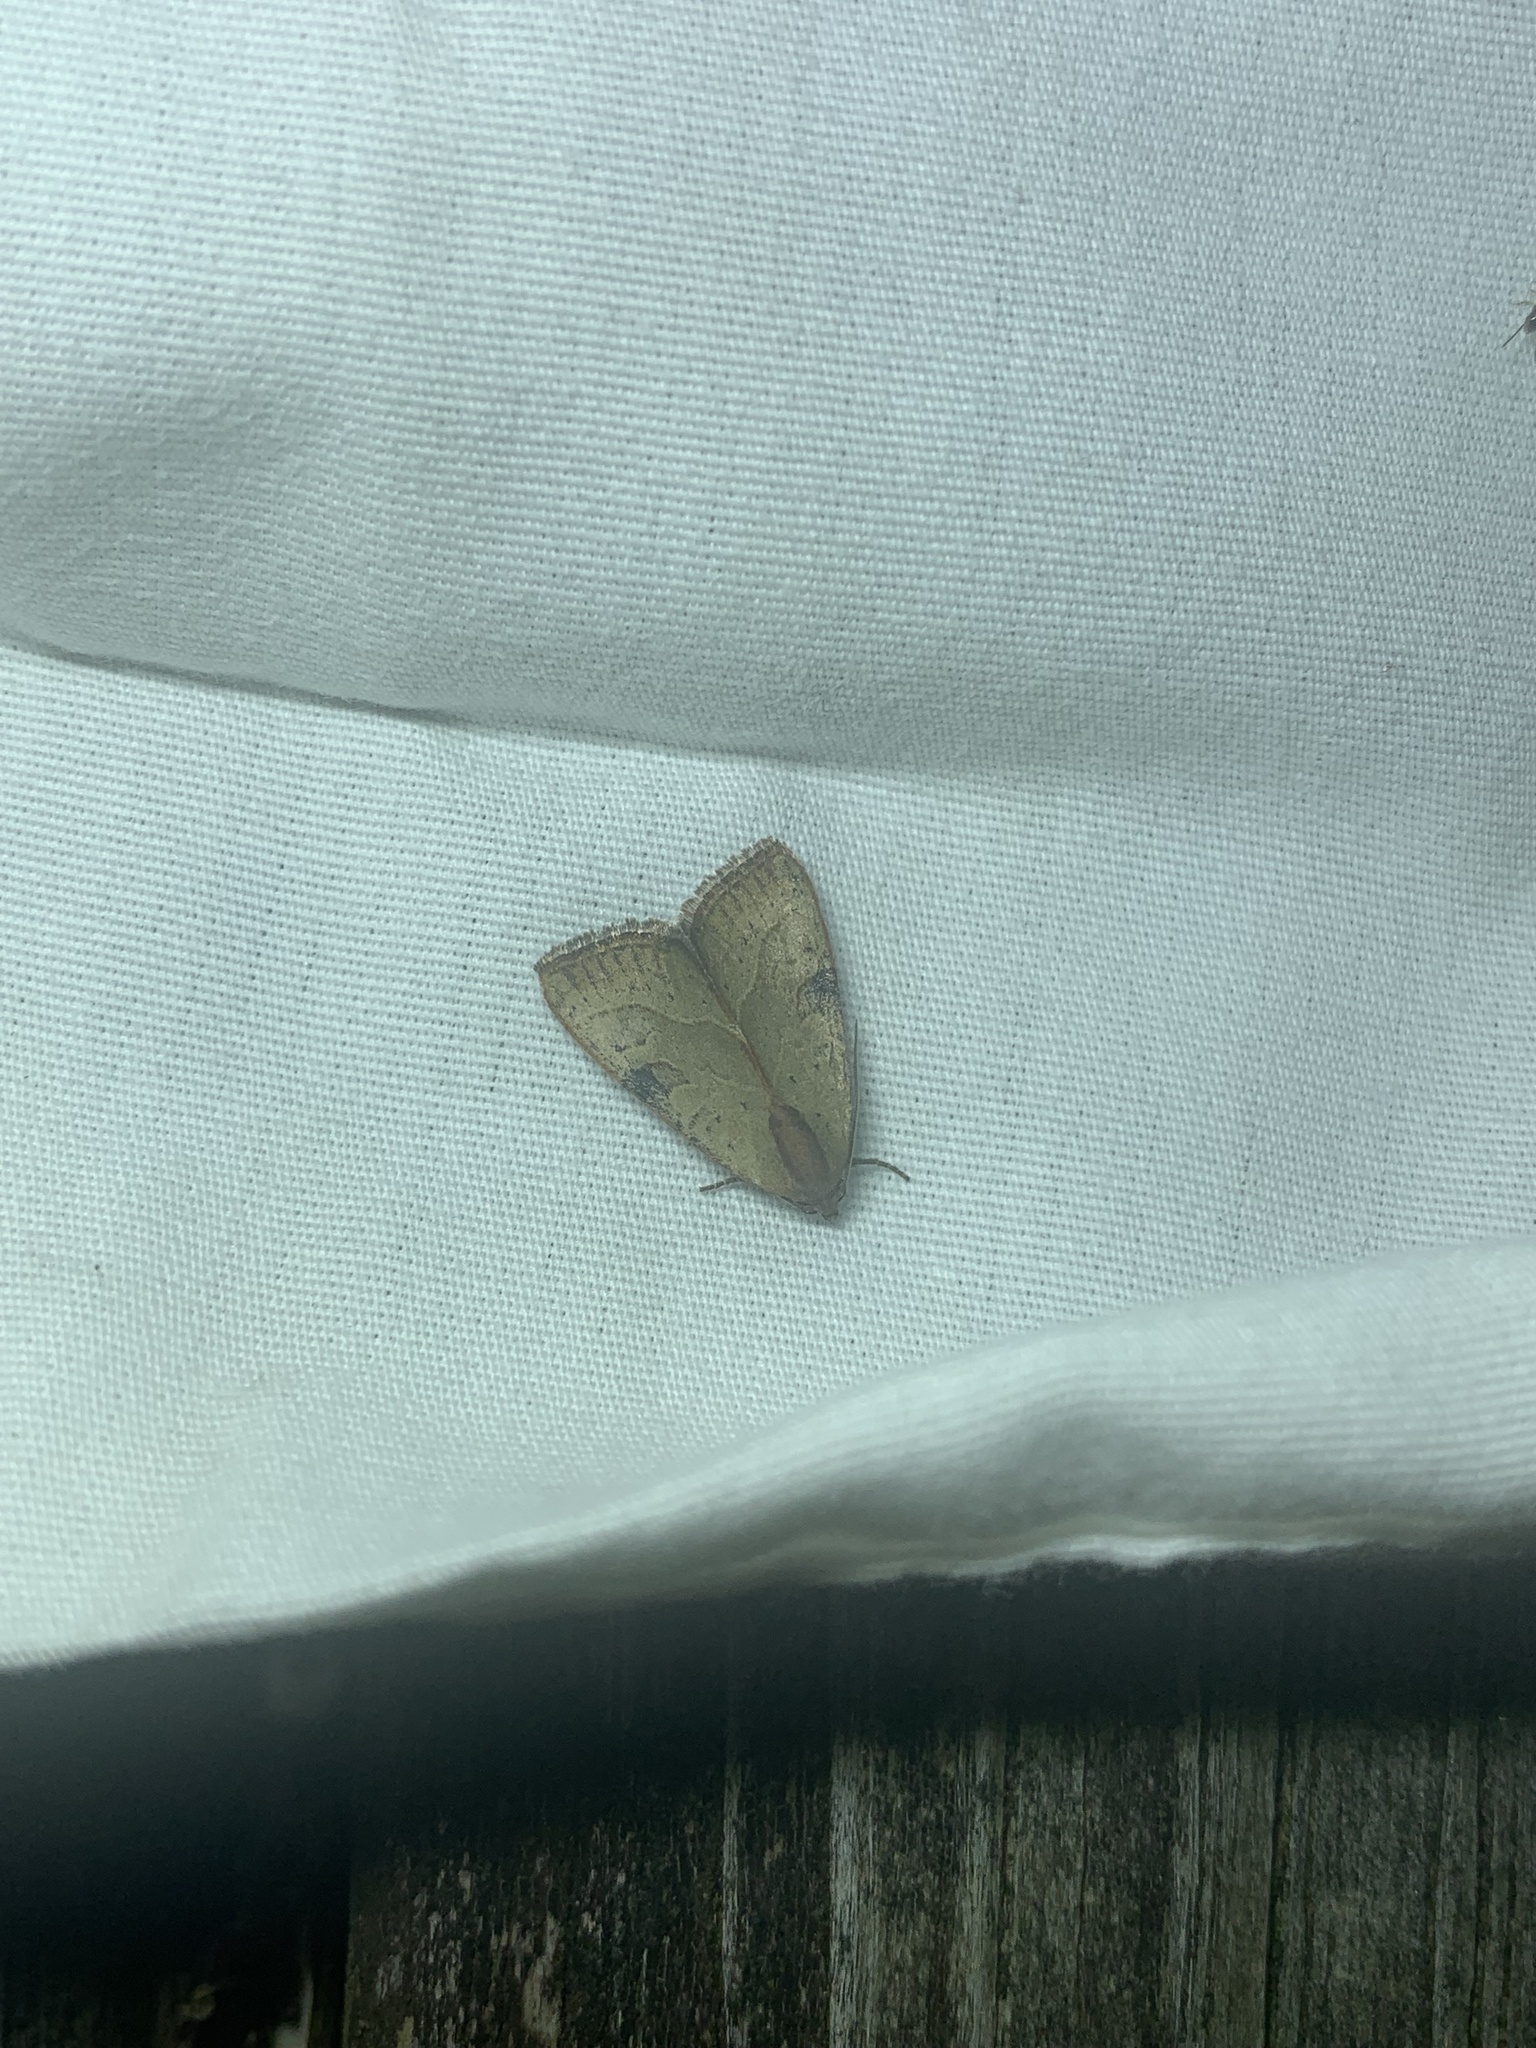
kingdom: Animalia
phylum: Arthropoda
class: Insecta
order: Lepidoptera
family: Noctuidae
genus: Galgula
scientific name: Galgula partita
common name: Wedgeling
